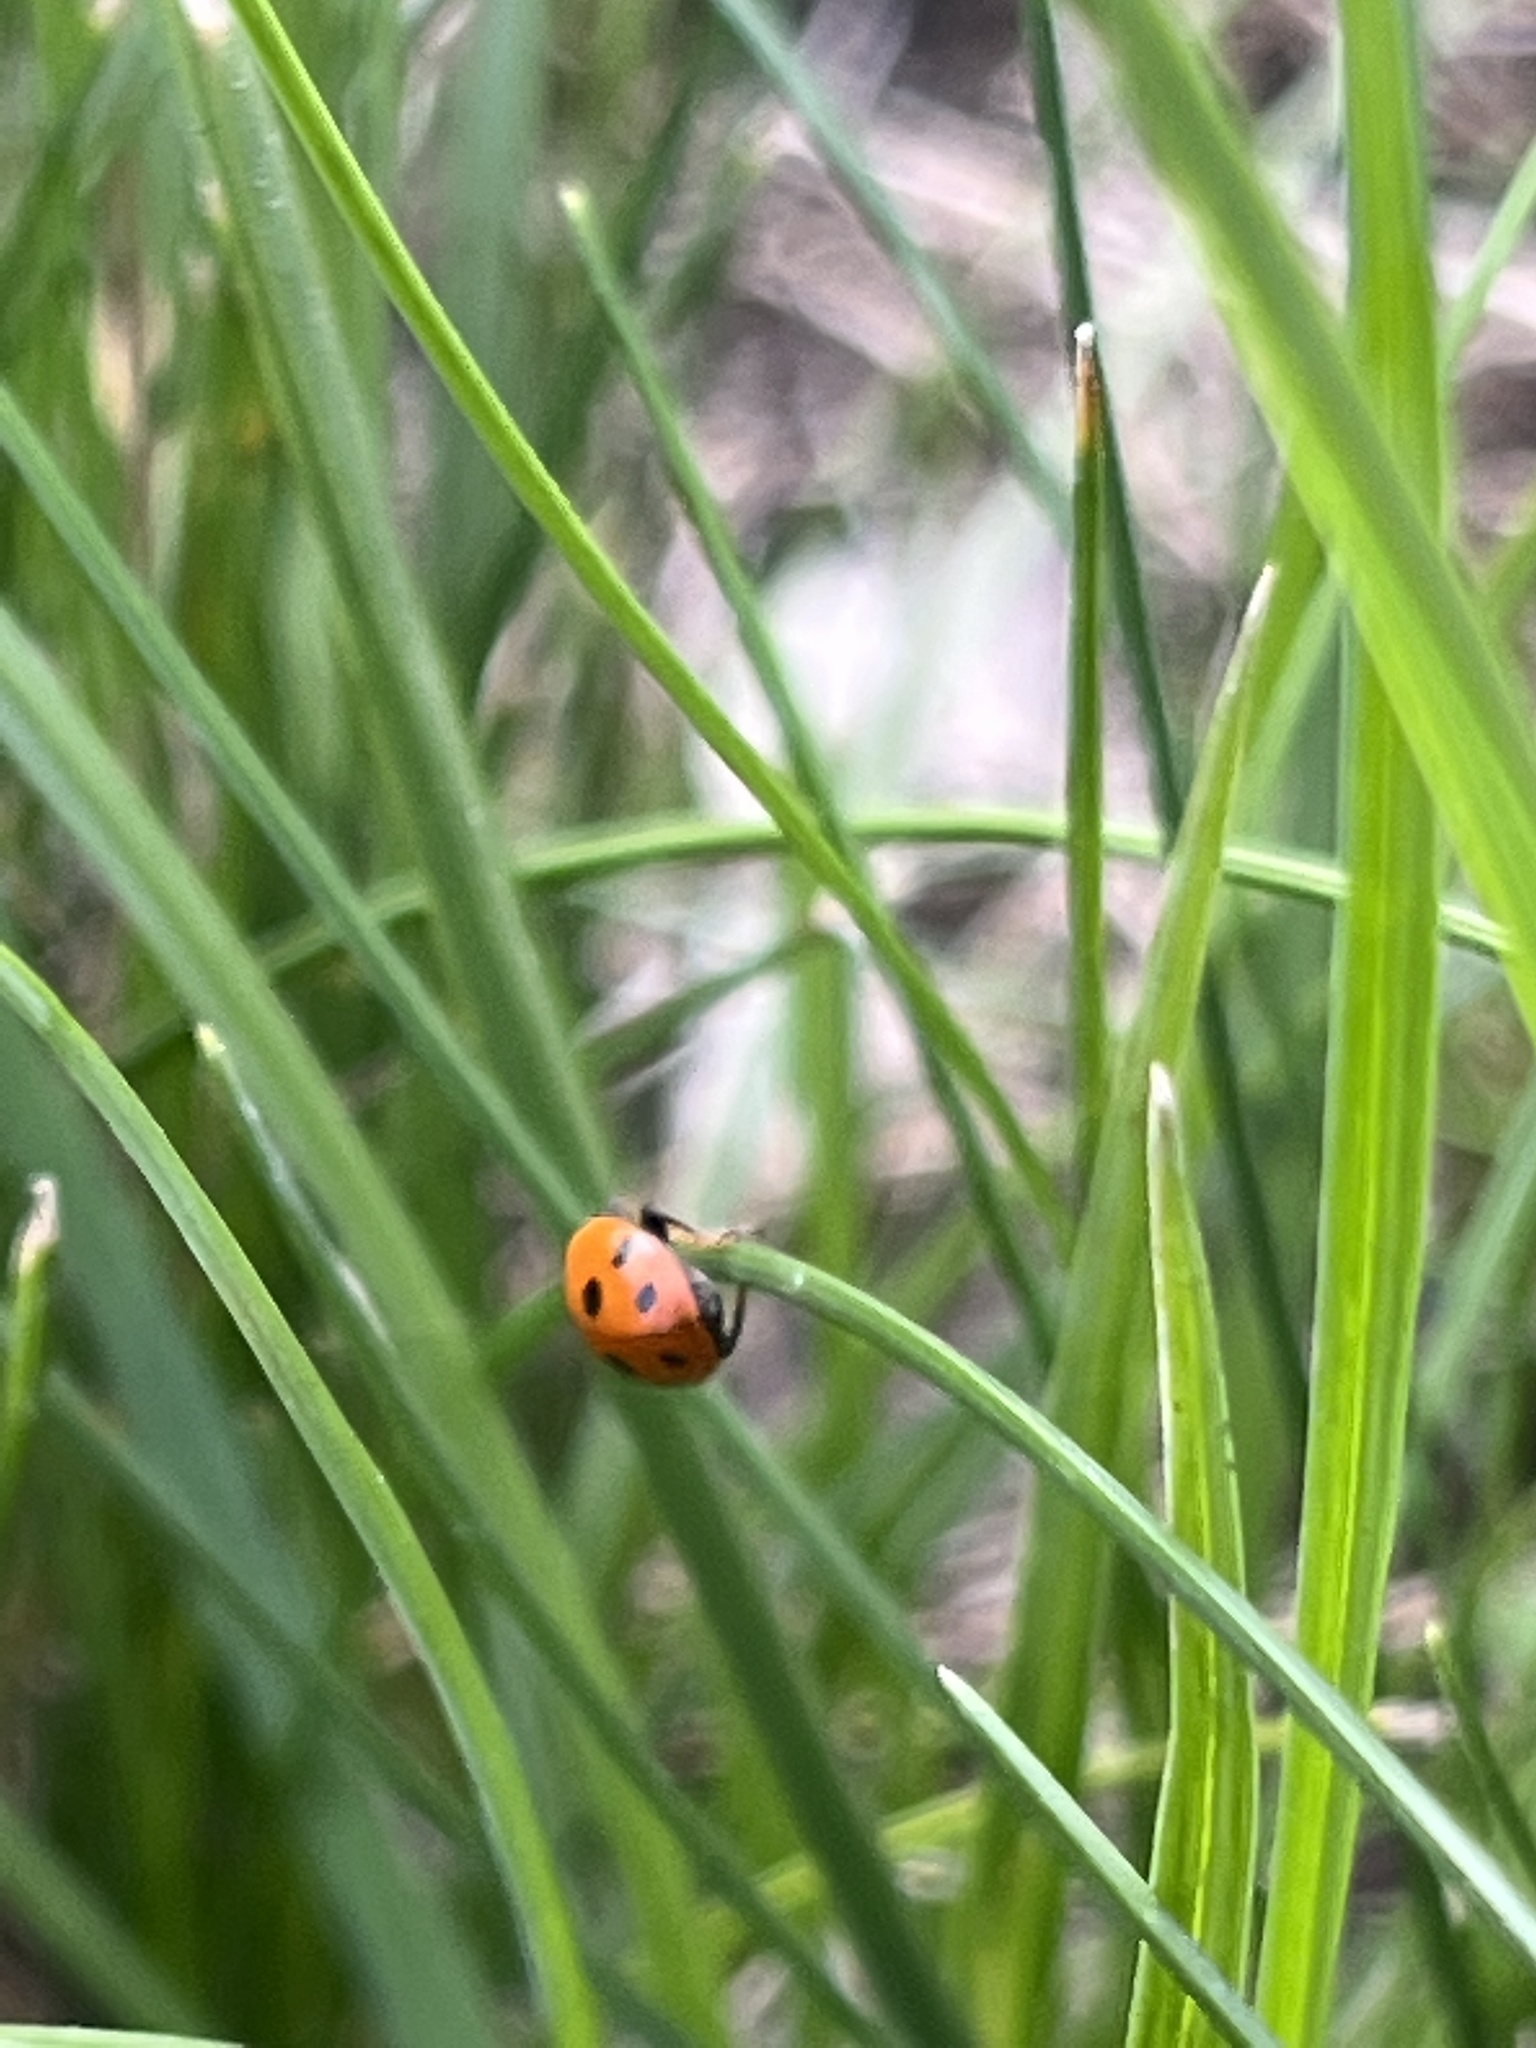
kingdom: Animalia
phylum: Arthropoda
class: Insecta
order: Coleoptera
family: Coccinellidae
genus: Coccinella
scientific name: Coccinella septempunctata
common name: Sevenspotted lady beetle
